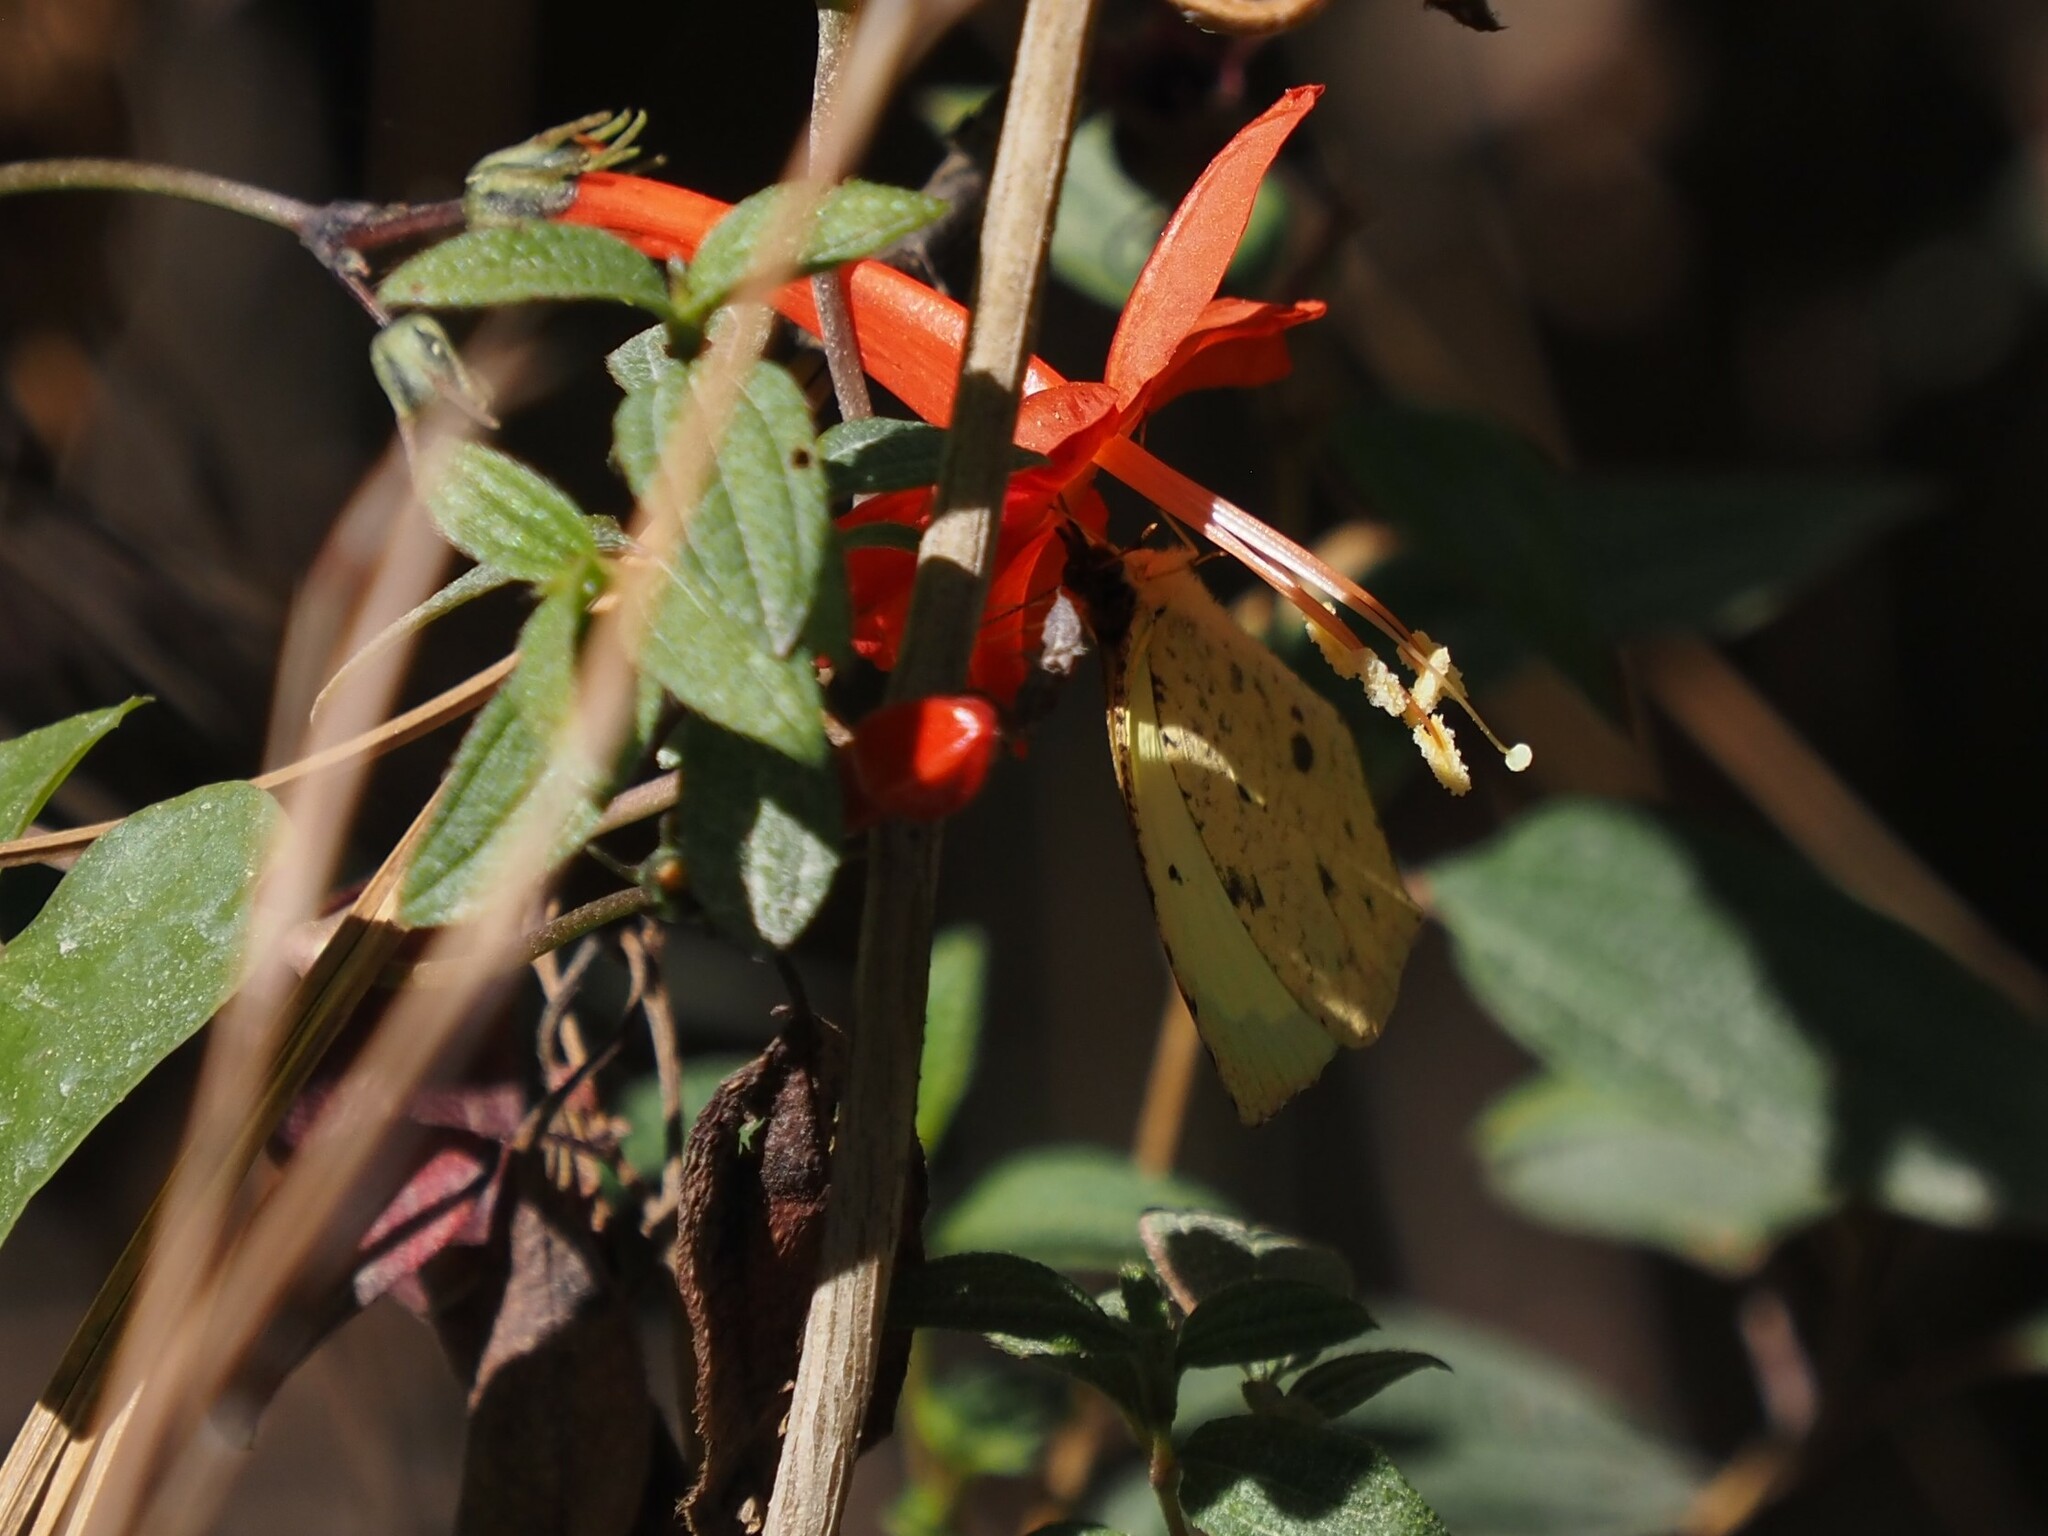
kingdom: Animalia
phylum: Arthropoda
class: Insecta
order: Lepidoptera
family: Pieridae
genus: Abaeis
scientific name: Abaeis salome
